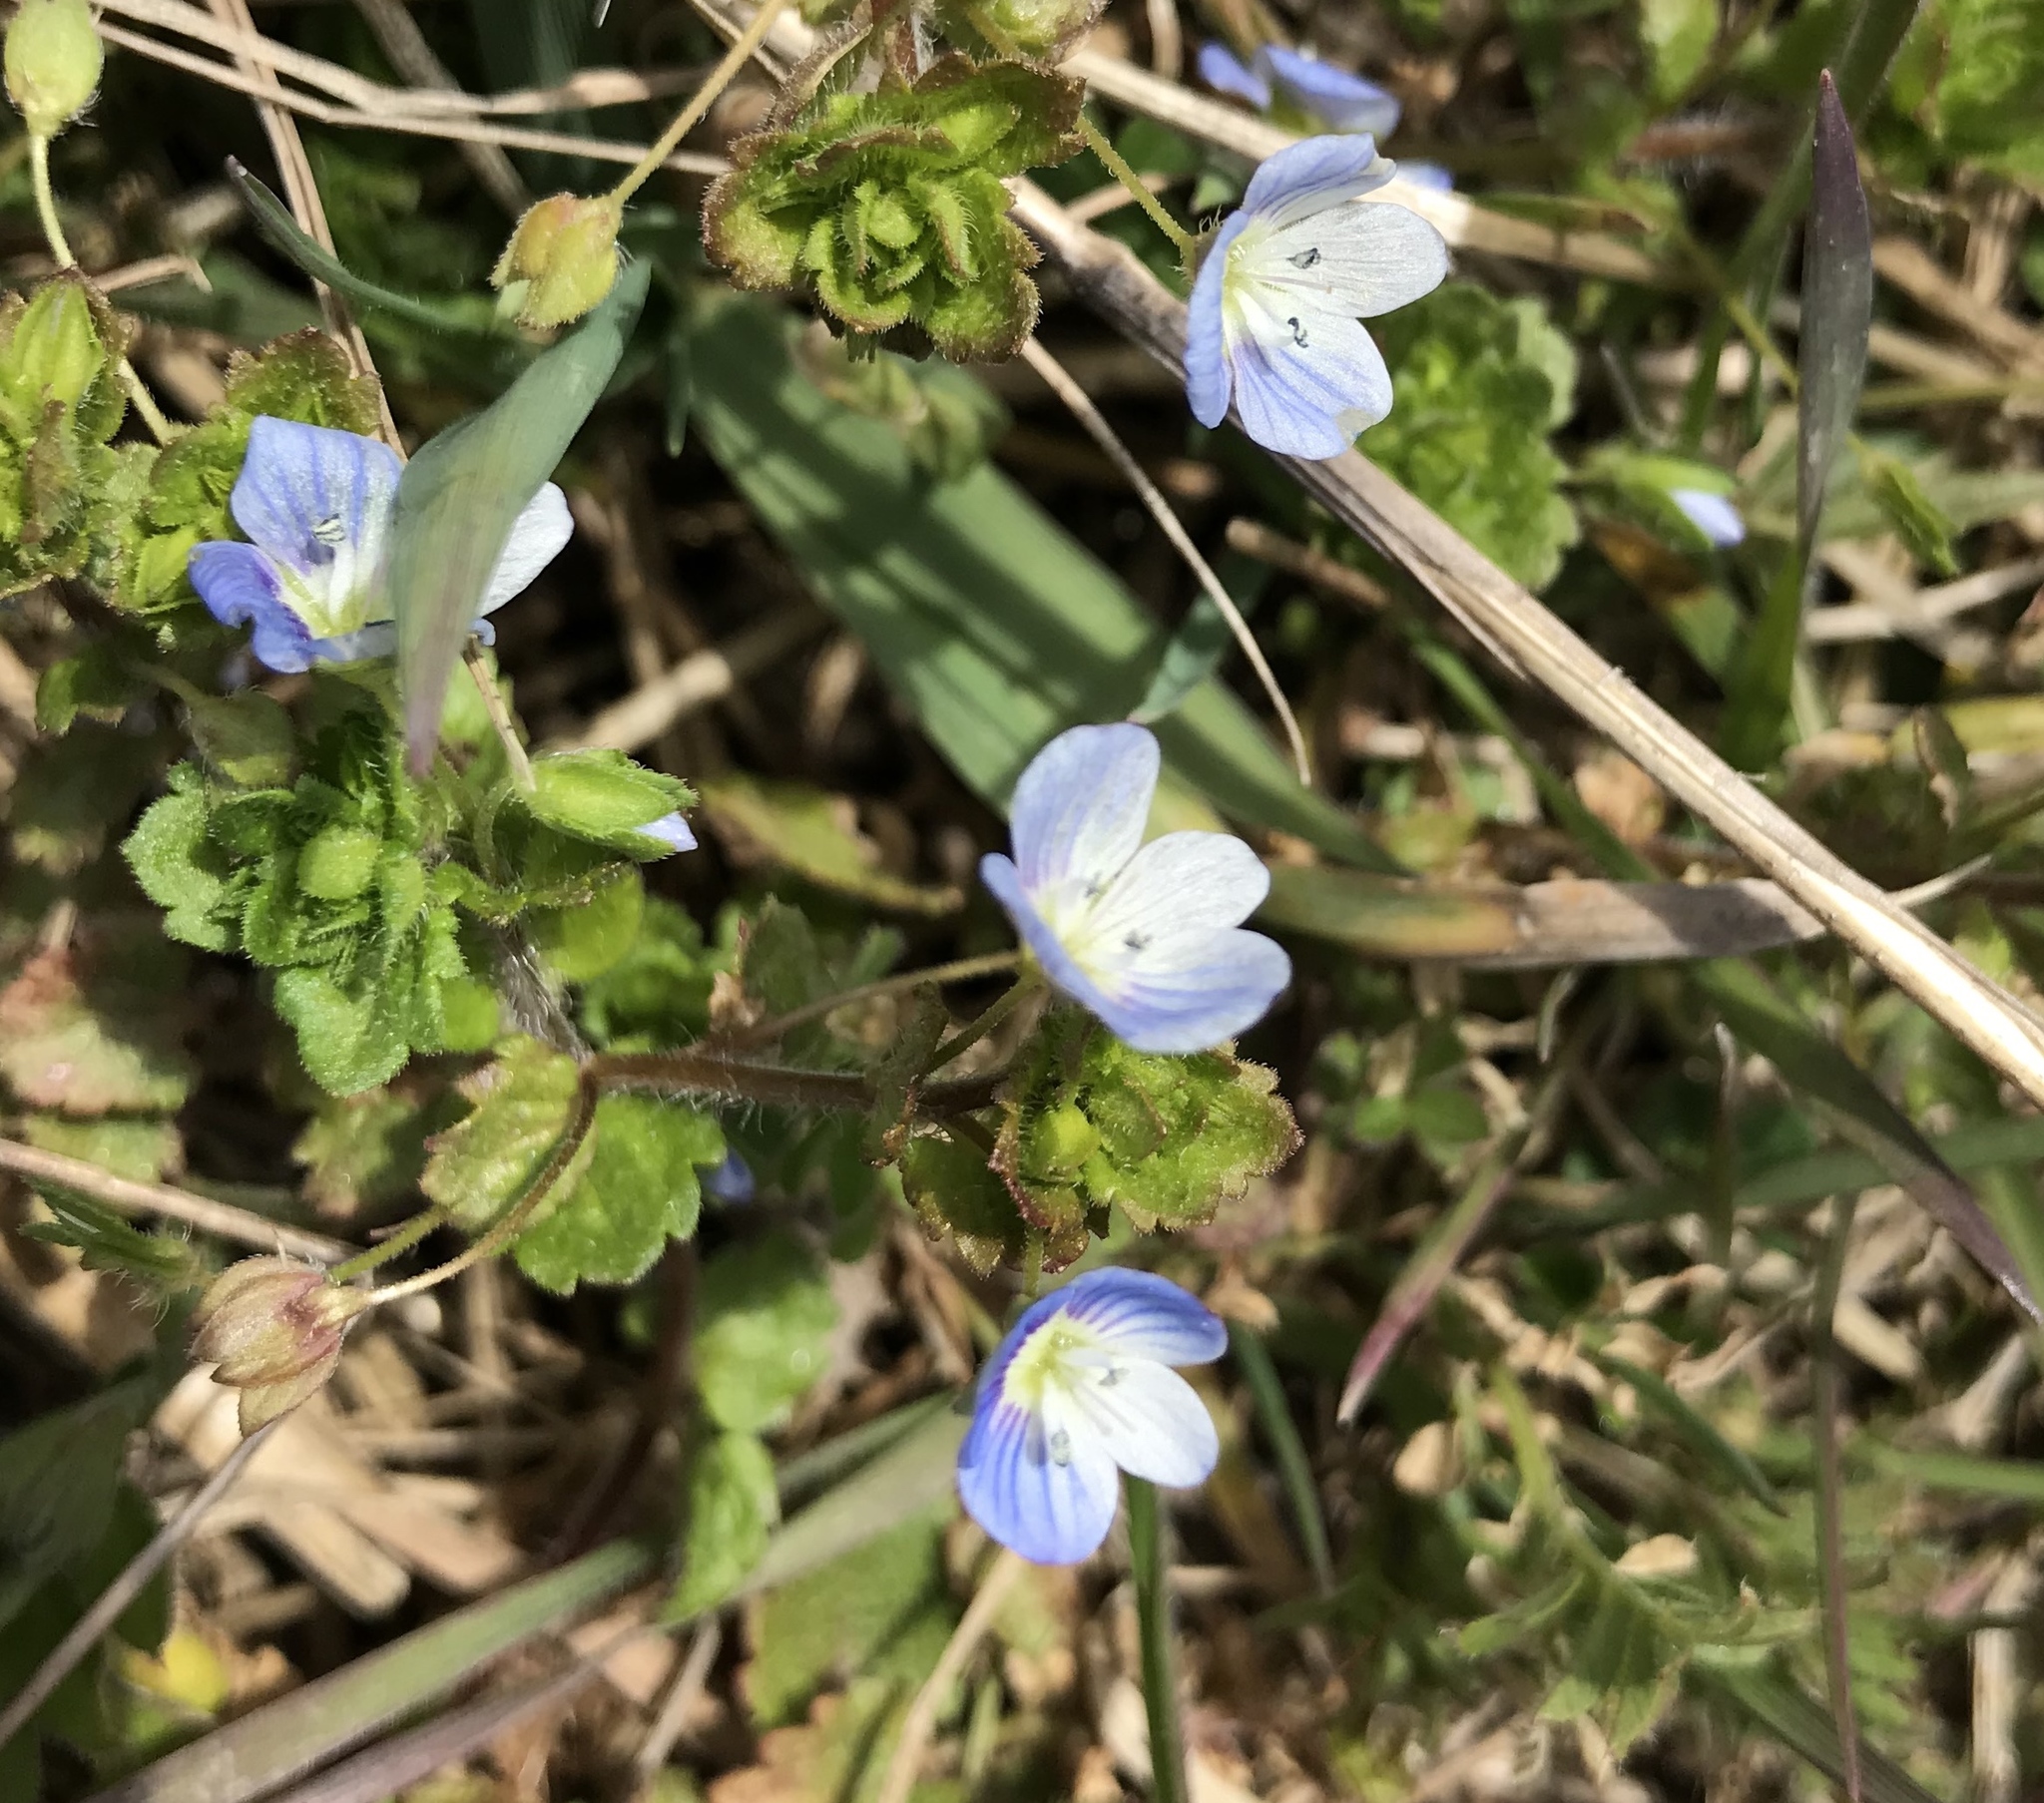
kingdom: Plantae
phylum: Tracheophyta
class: Magnoliopsida
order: Lamiales
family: Plantaginaceae
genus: Veronica
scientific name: Veronica persica
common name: Common field-speedwell
